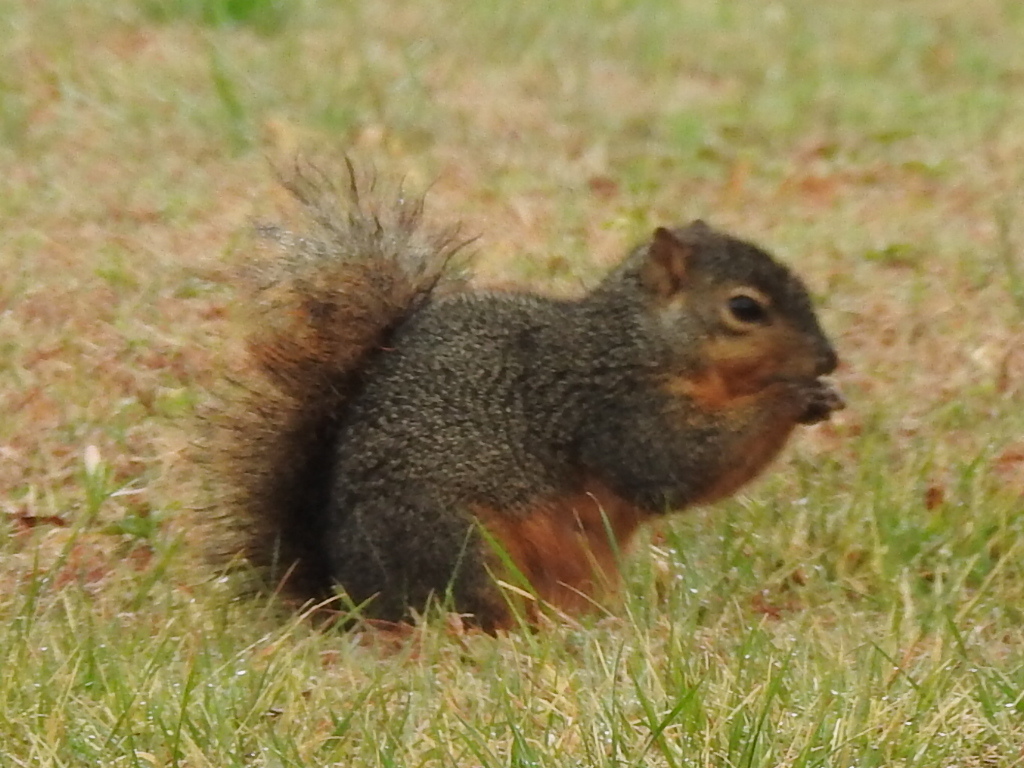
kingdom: Animalia
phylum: Chordata
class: Mammalia
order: Rodentia
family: Sciuridae
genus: Sciurus
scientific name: Sciurus niger
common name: Fox squirrel
